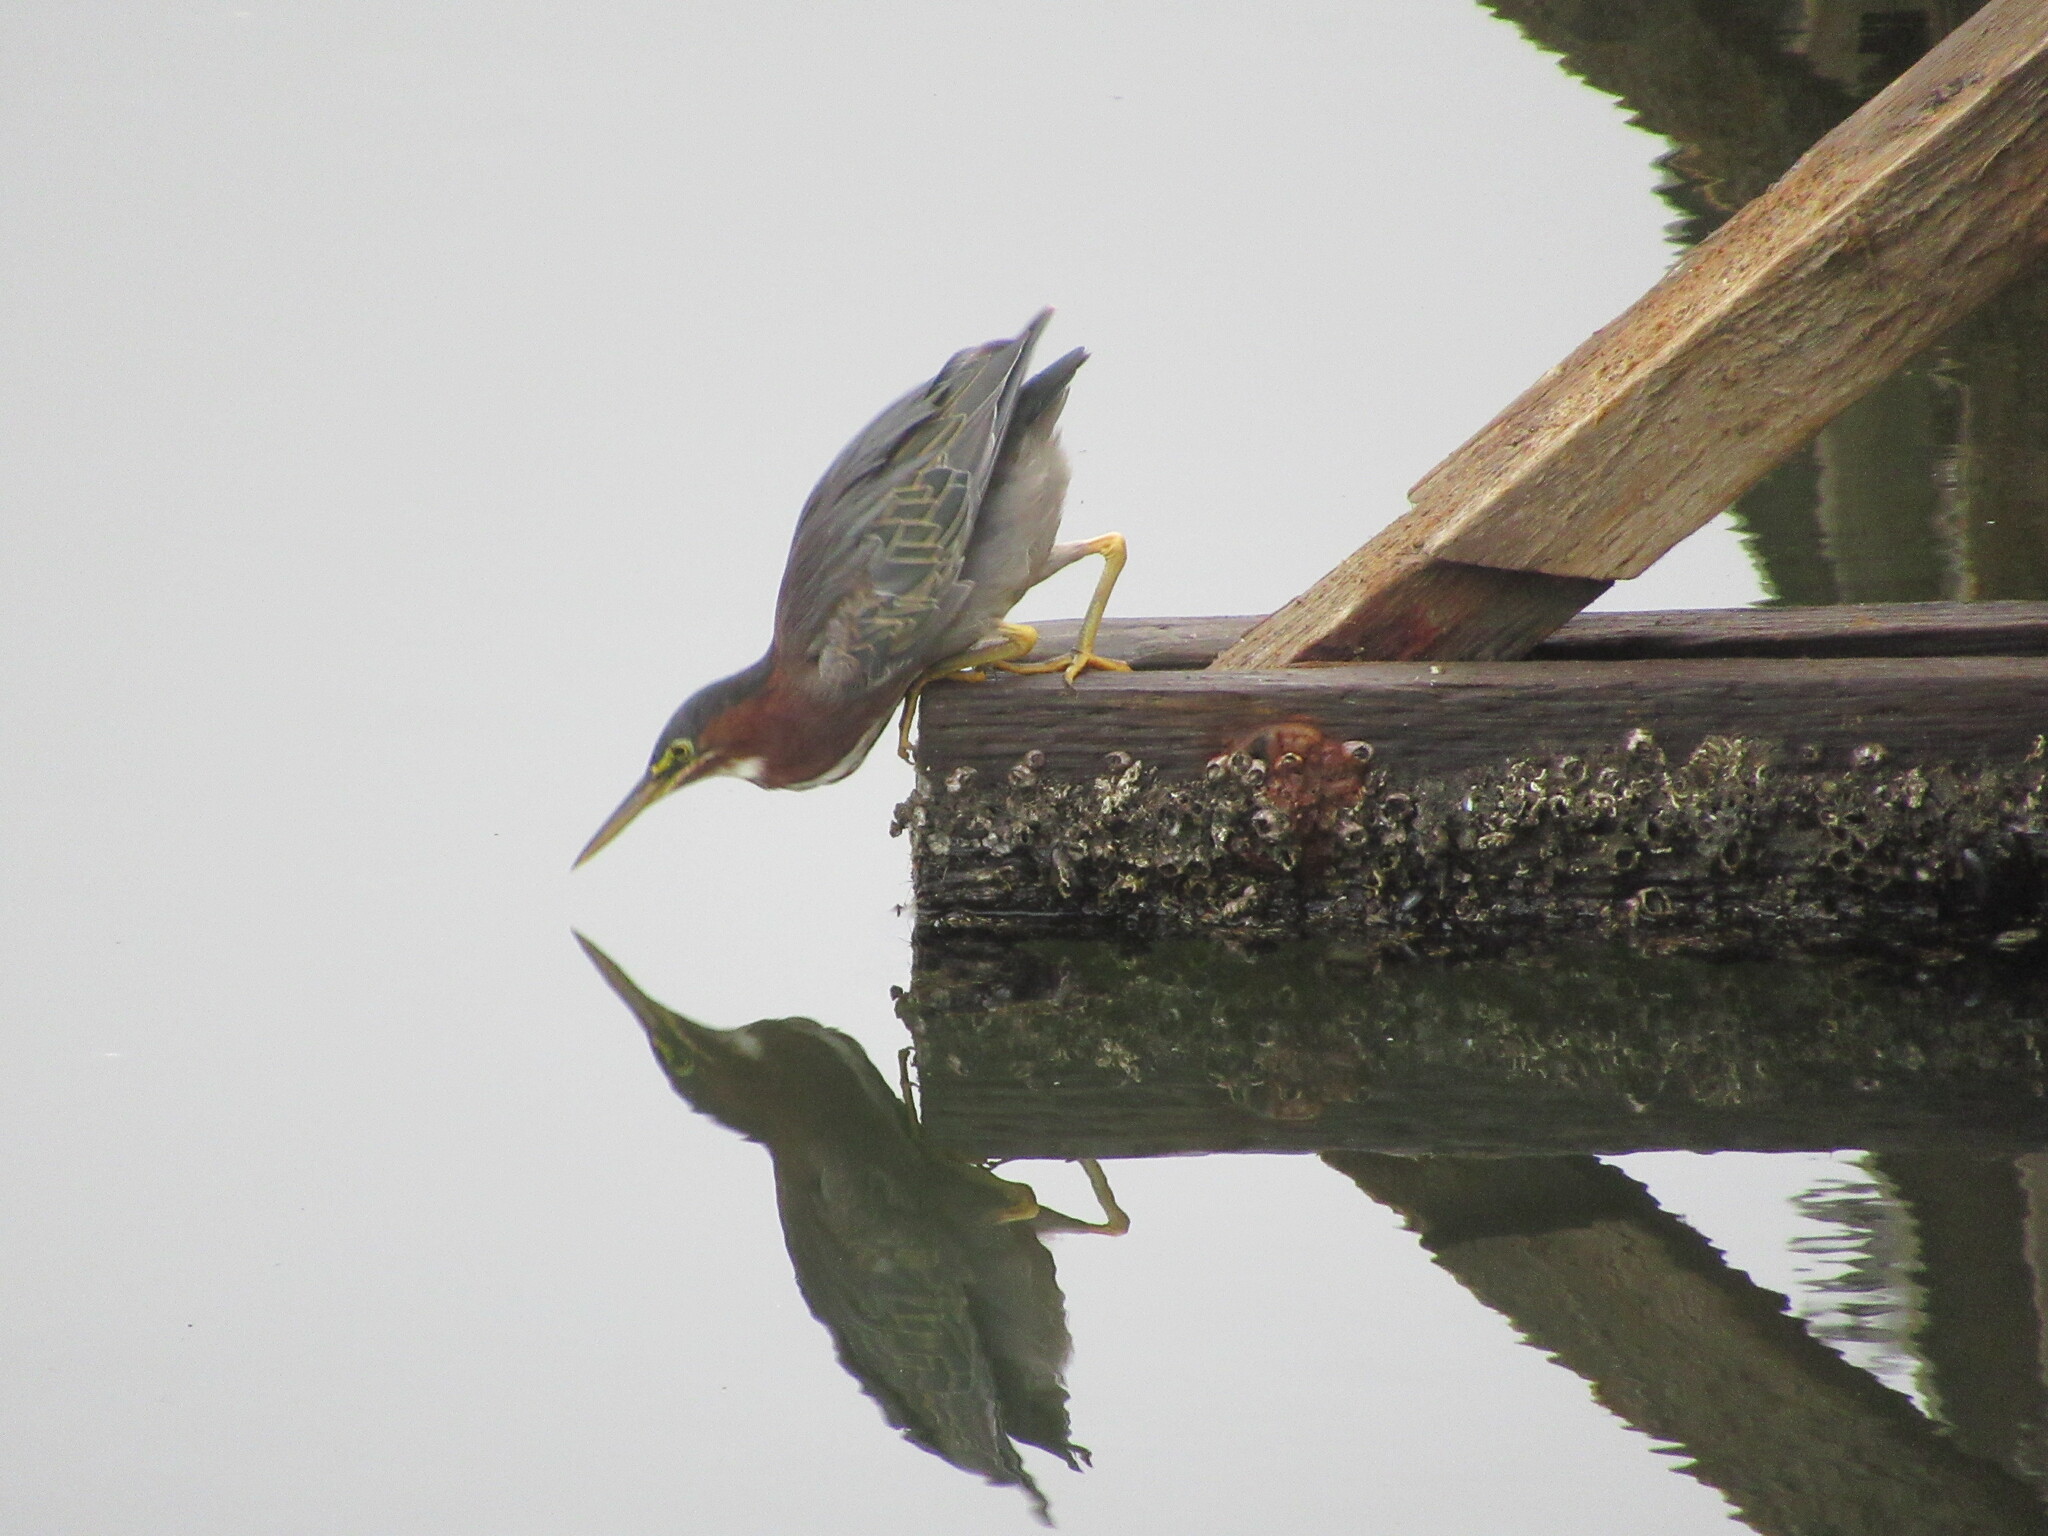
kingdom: Animalia
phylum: Chordata
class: Aves
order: Pelecaniformes
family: Ardeidae
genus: Butorides
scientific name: Butorides virescens
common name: Green heron
